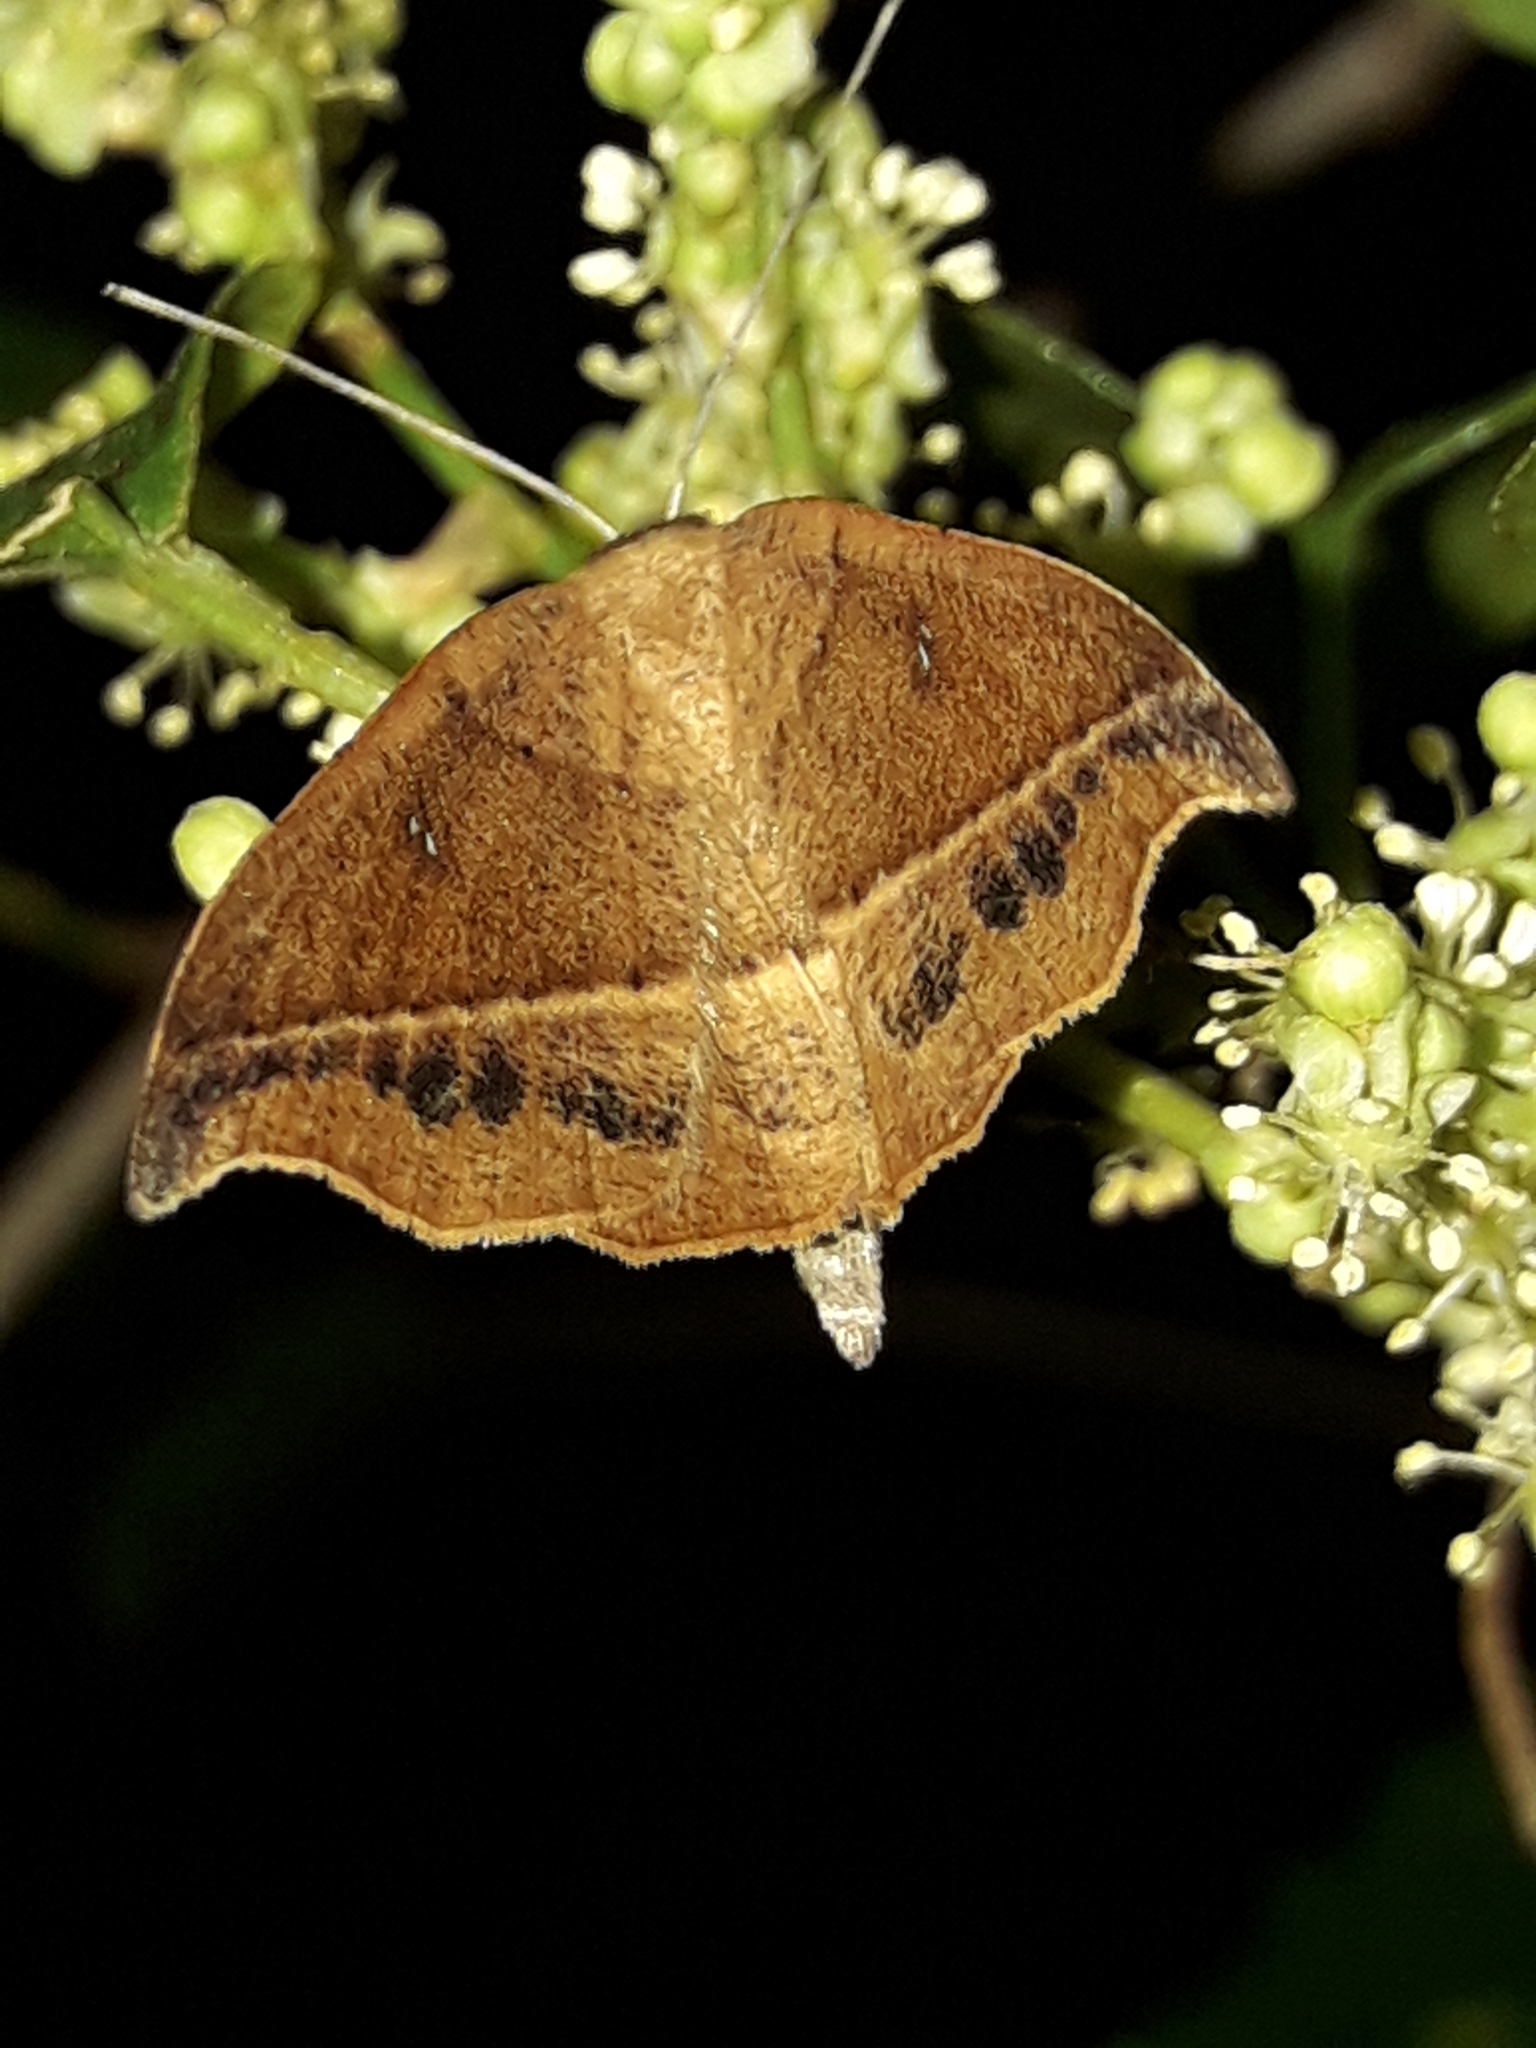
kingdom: Animalia
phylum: Arthropoda
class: Insecta
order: Lepidoptera
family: Geometridae
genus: Sarisa
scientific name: Sarisa muriferata
